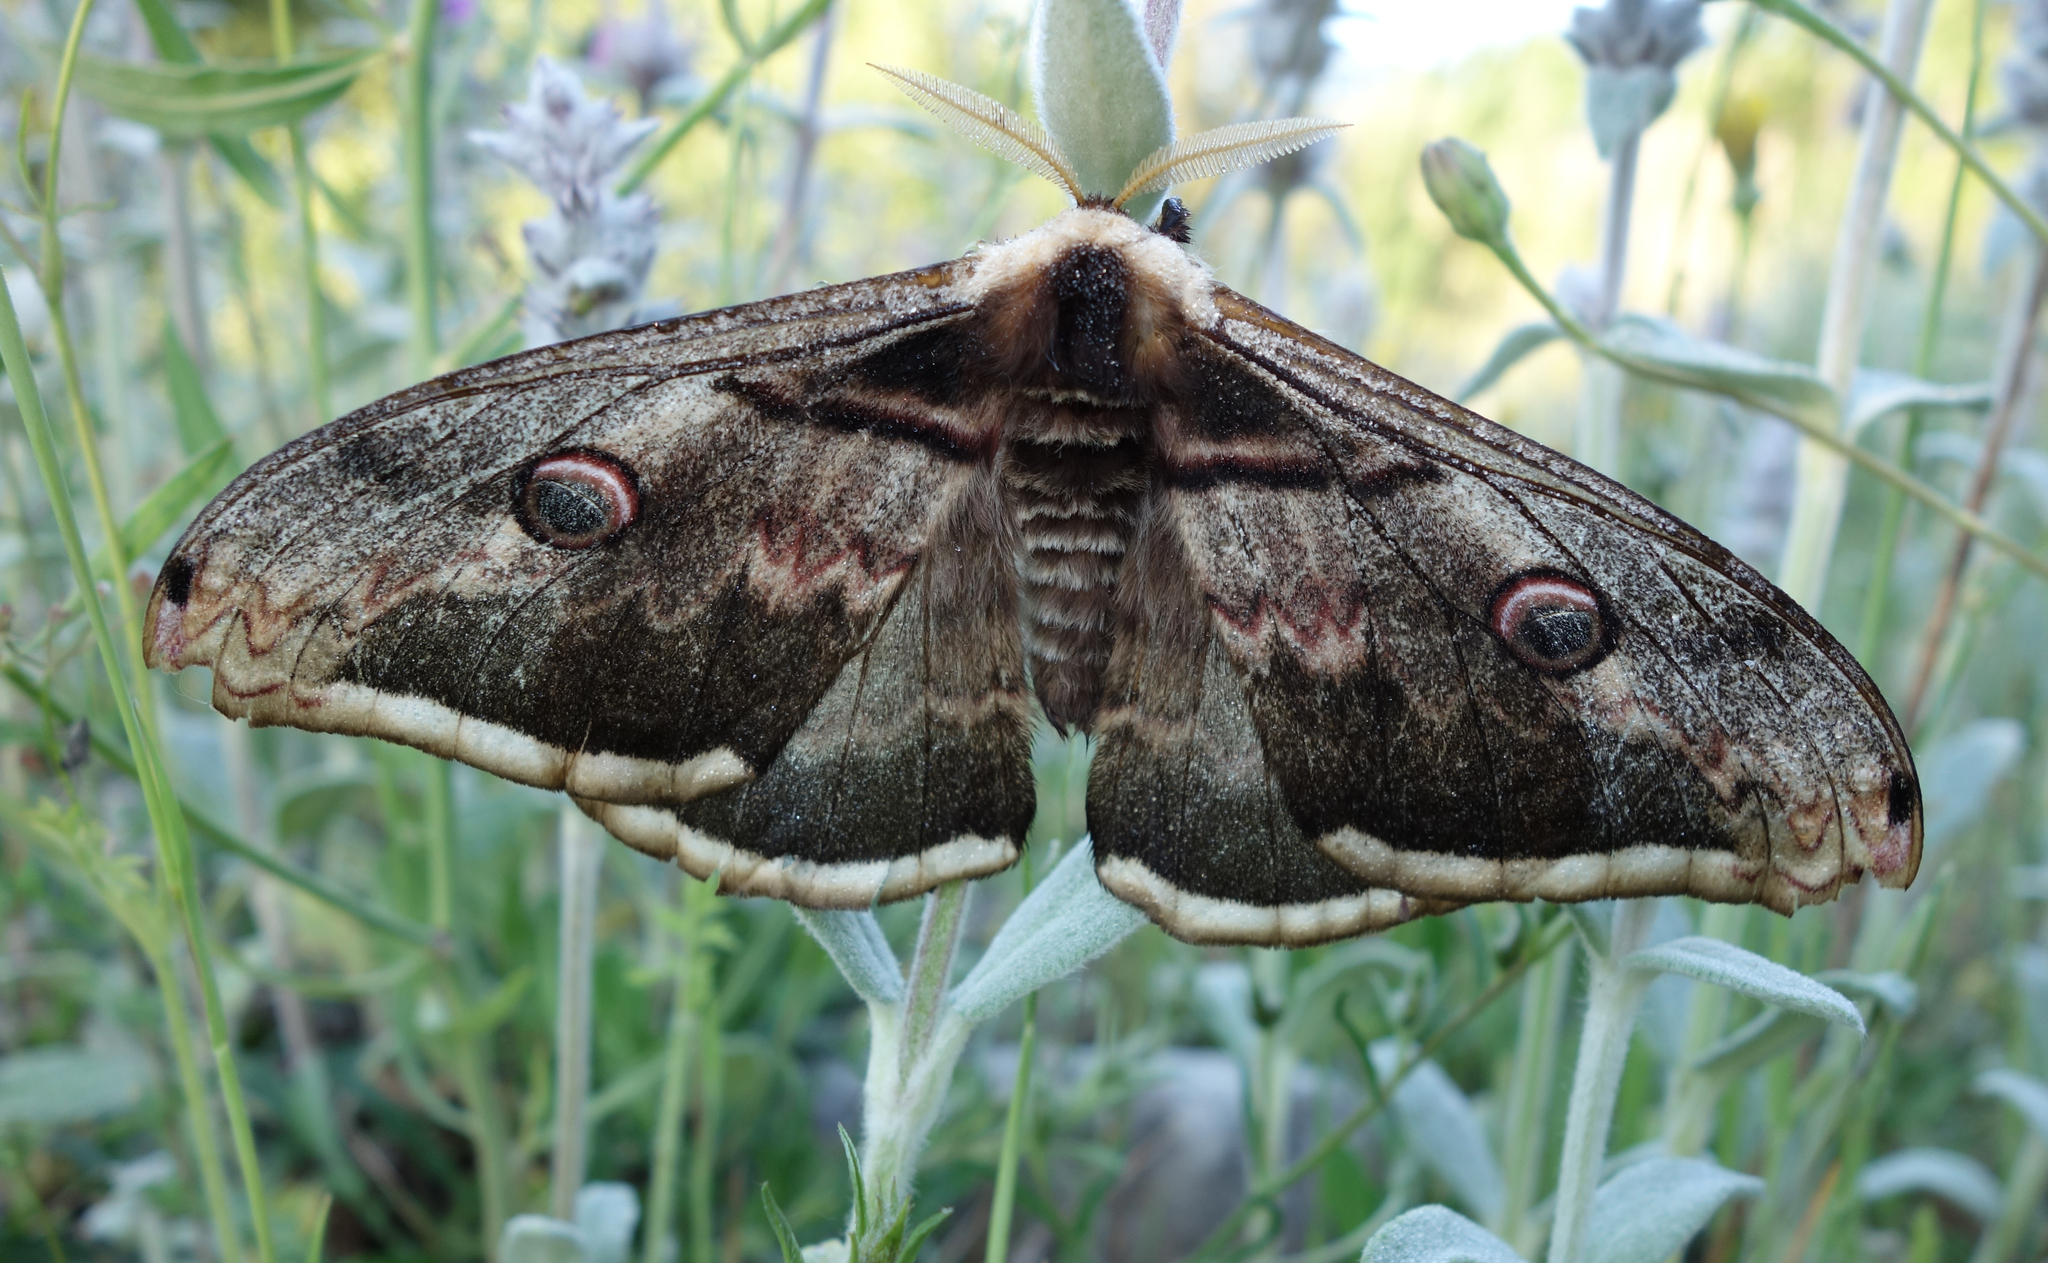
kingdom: Animalia
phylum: Arthropoda
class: Insecta
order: Lepidoptera
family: Saturniidae
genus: Saturnia
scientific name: Saturnia pyri
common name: Great peacock moth
